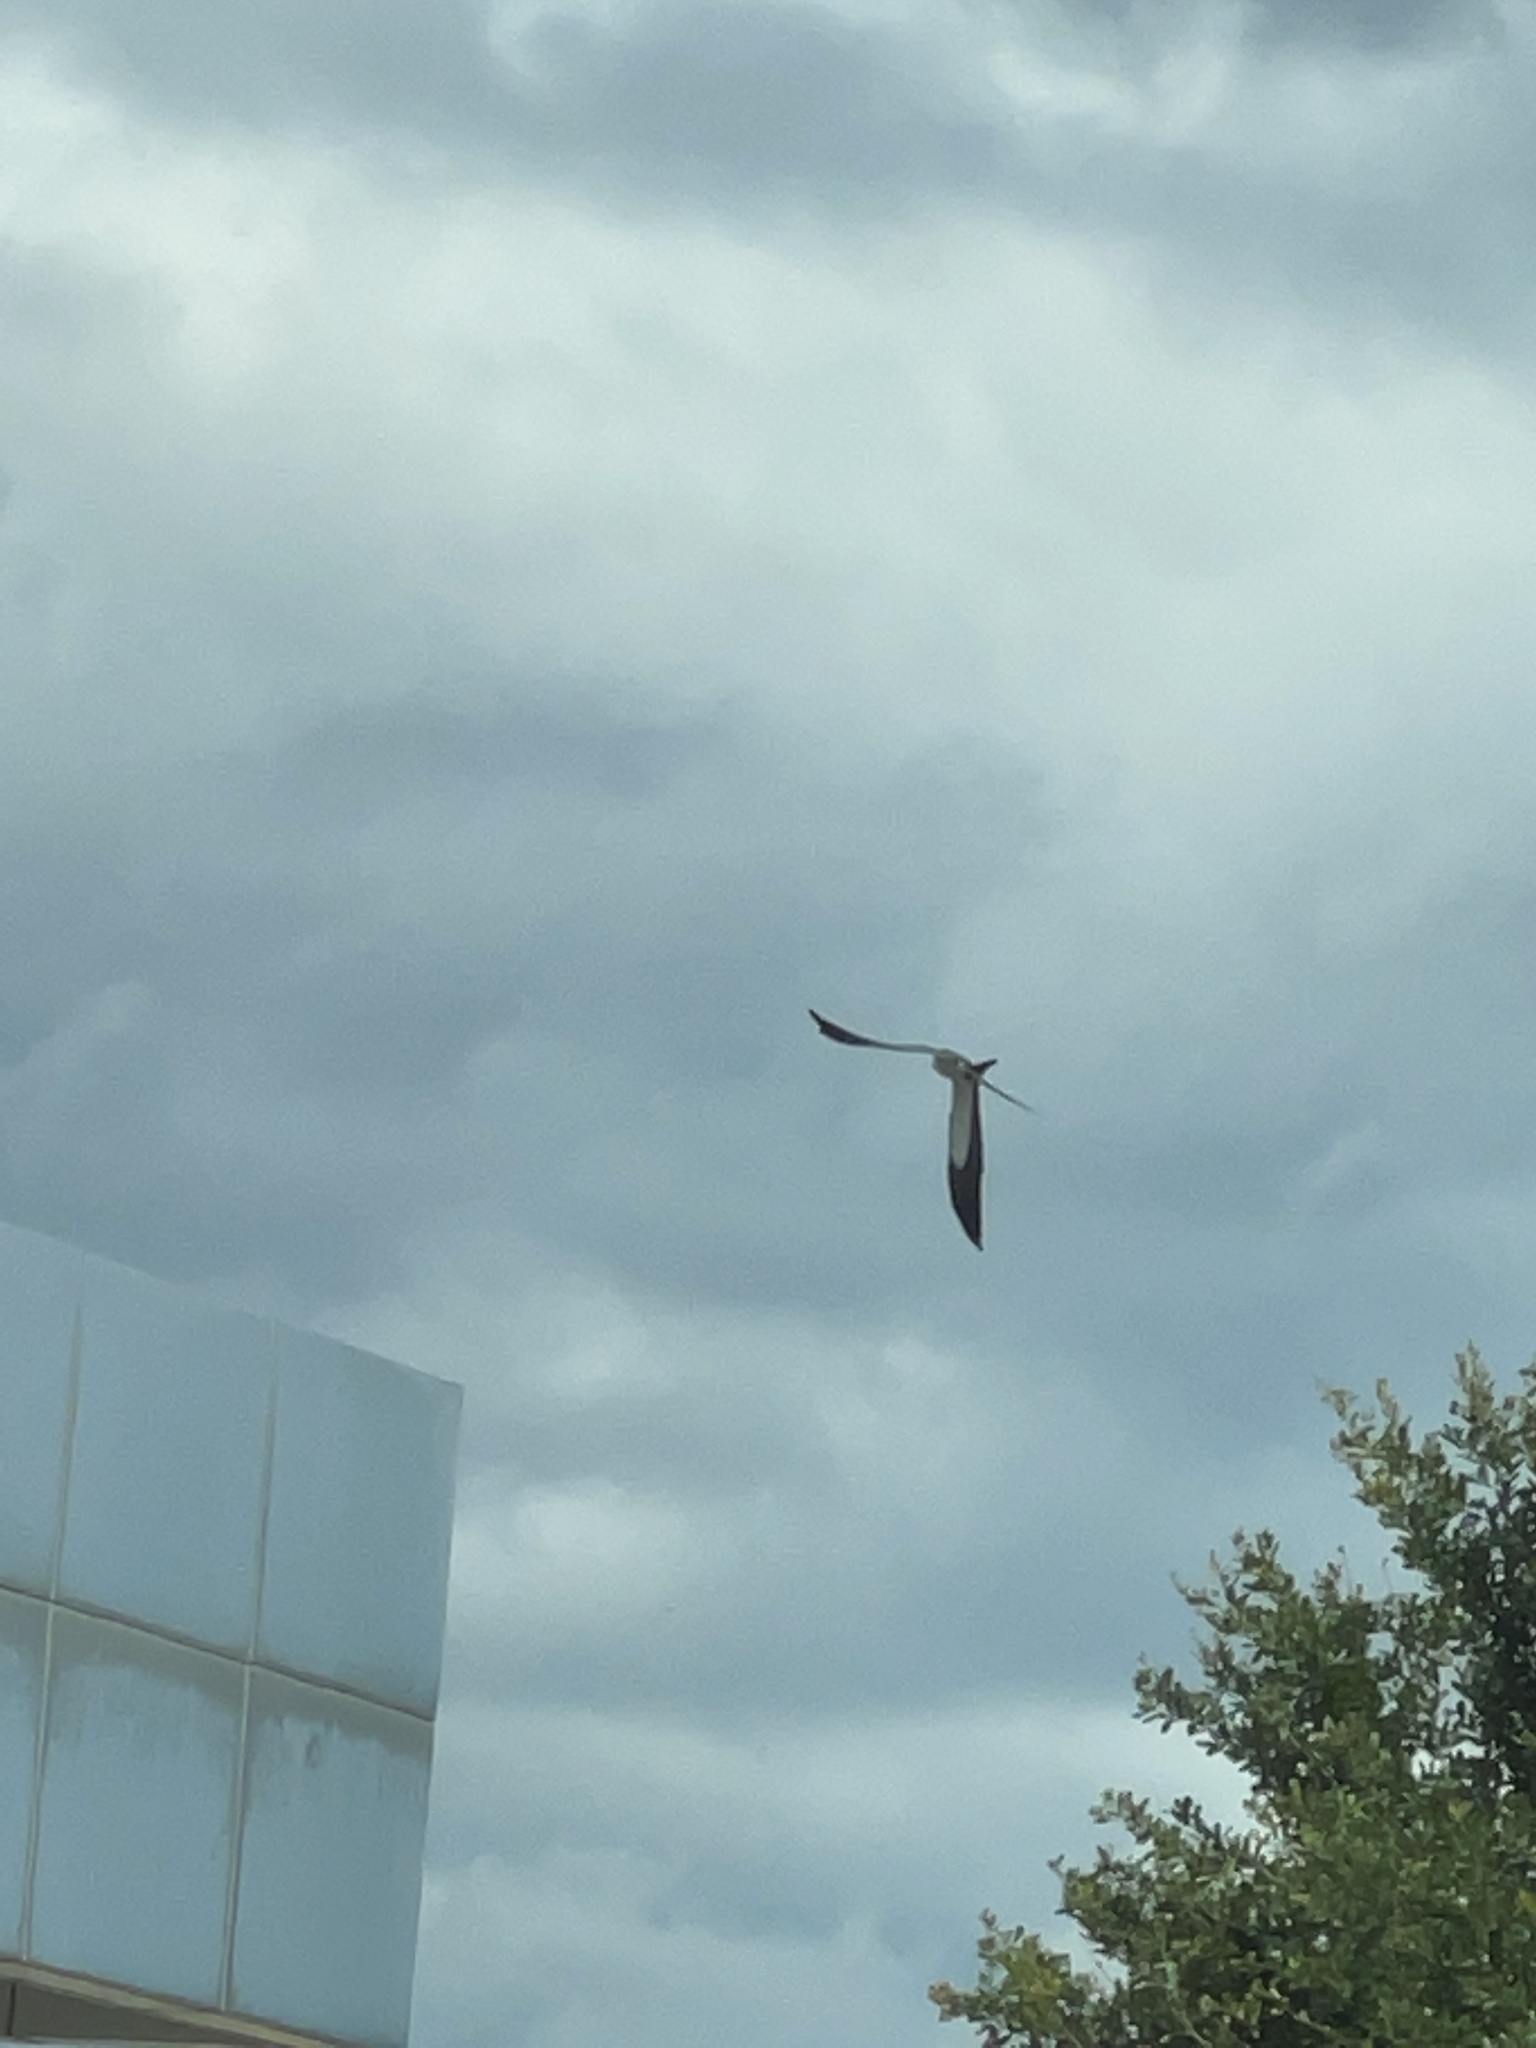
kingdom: Animalia
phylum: Chordata
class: Aves
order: Accipitriformes
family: Accipitridae
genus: Elanoides
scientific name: Elanoides forficatus
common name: Swallow-tailed kite
